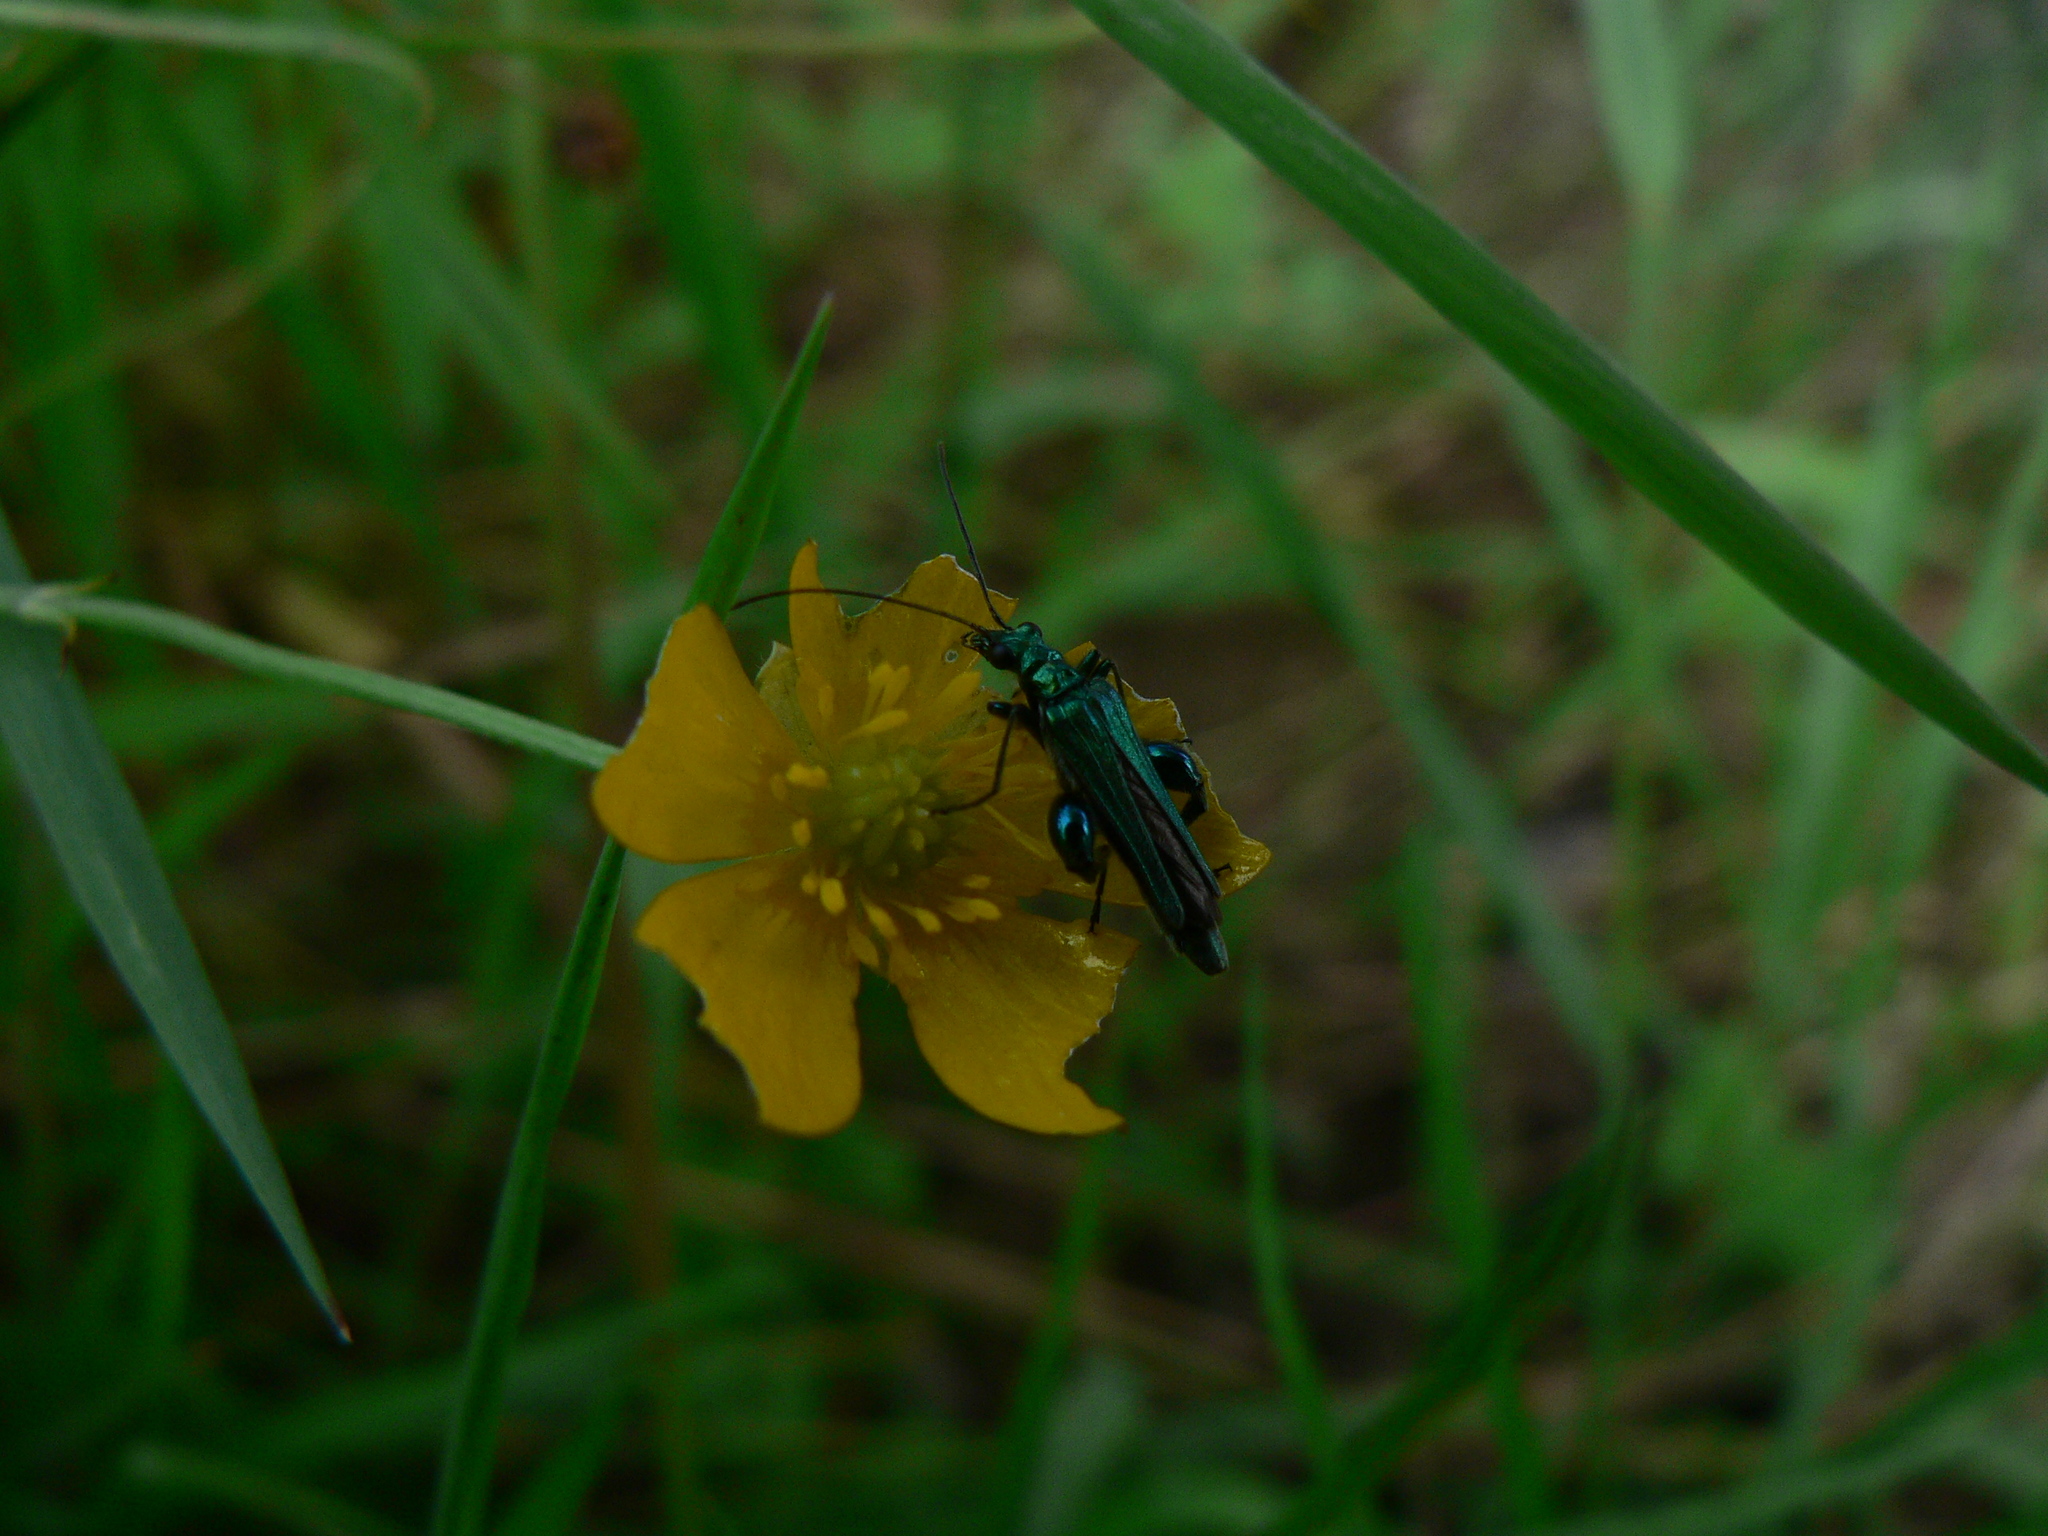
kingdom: Animalia
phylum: Arthropoda
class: Insecta
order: Coleoptera
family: Oedemeridae
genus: Oedemera
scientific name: Oedemera nobilis
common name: Swollen-thighed beetle
